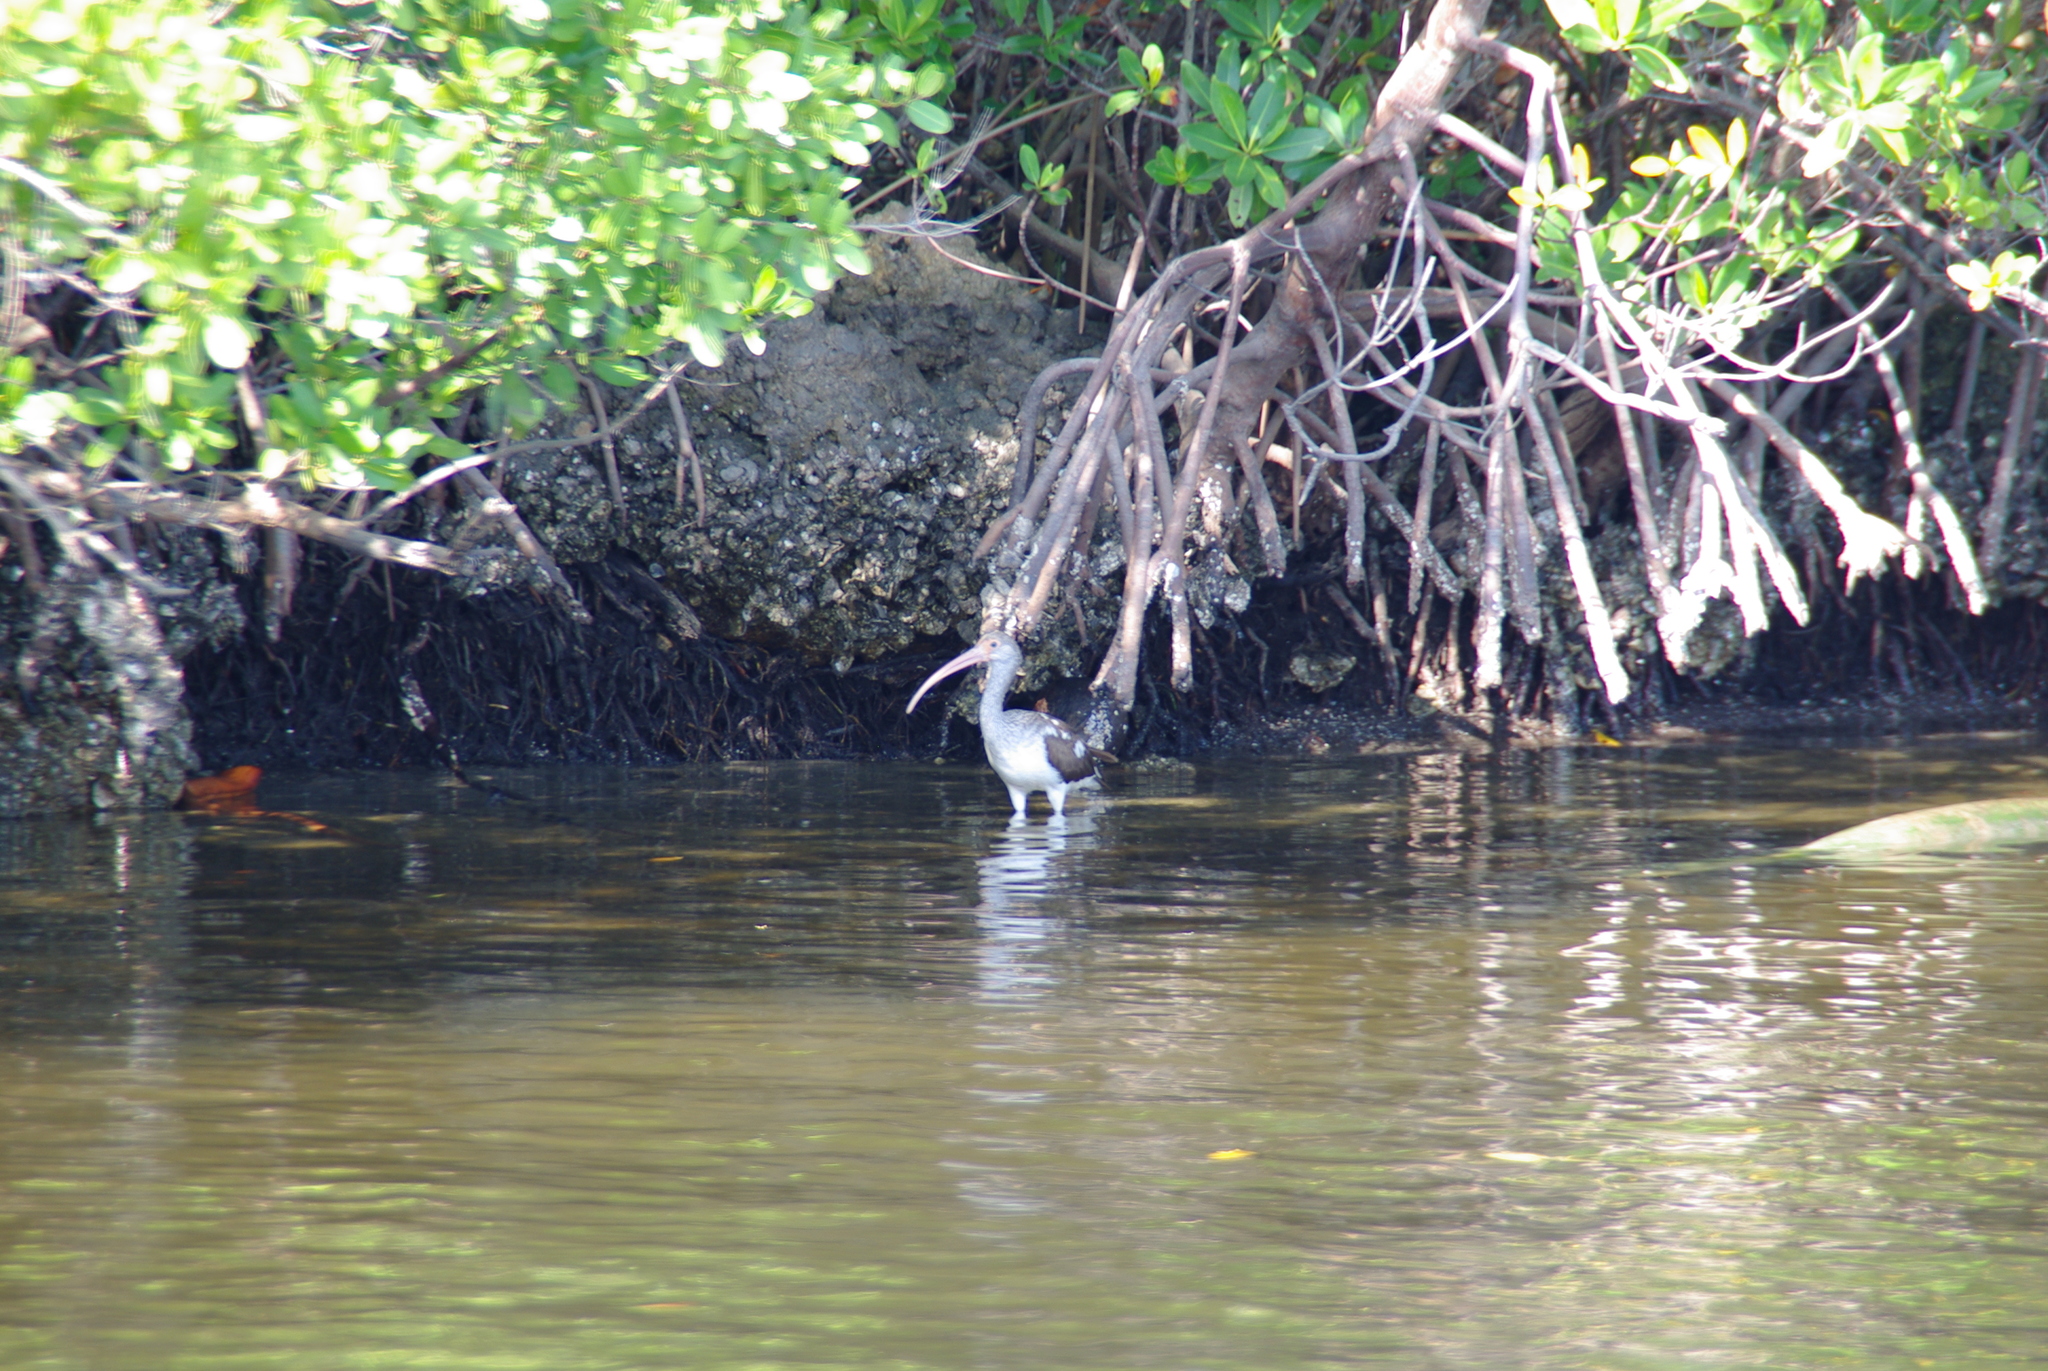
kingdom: Animalia
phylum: Chordata
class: Aves
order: Pelecaniformes
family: Threskiornithidae
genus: Eudocimus
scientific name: Eudocimus albus
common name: White ibis
